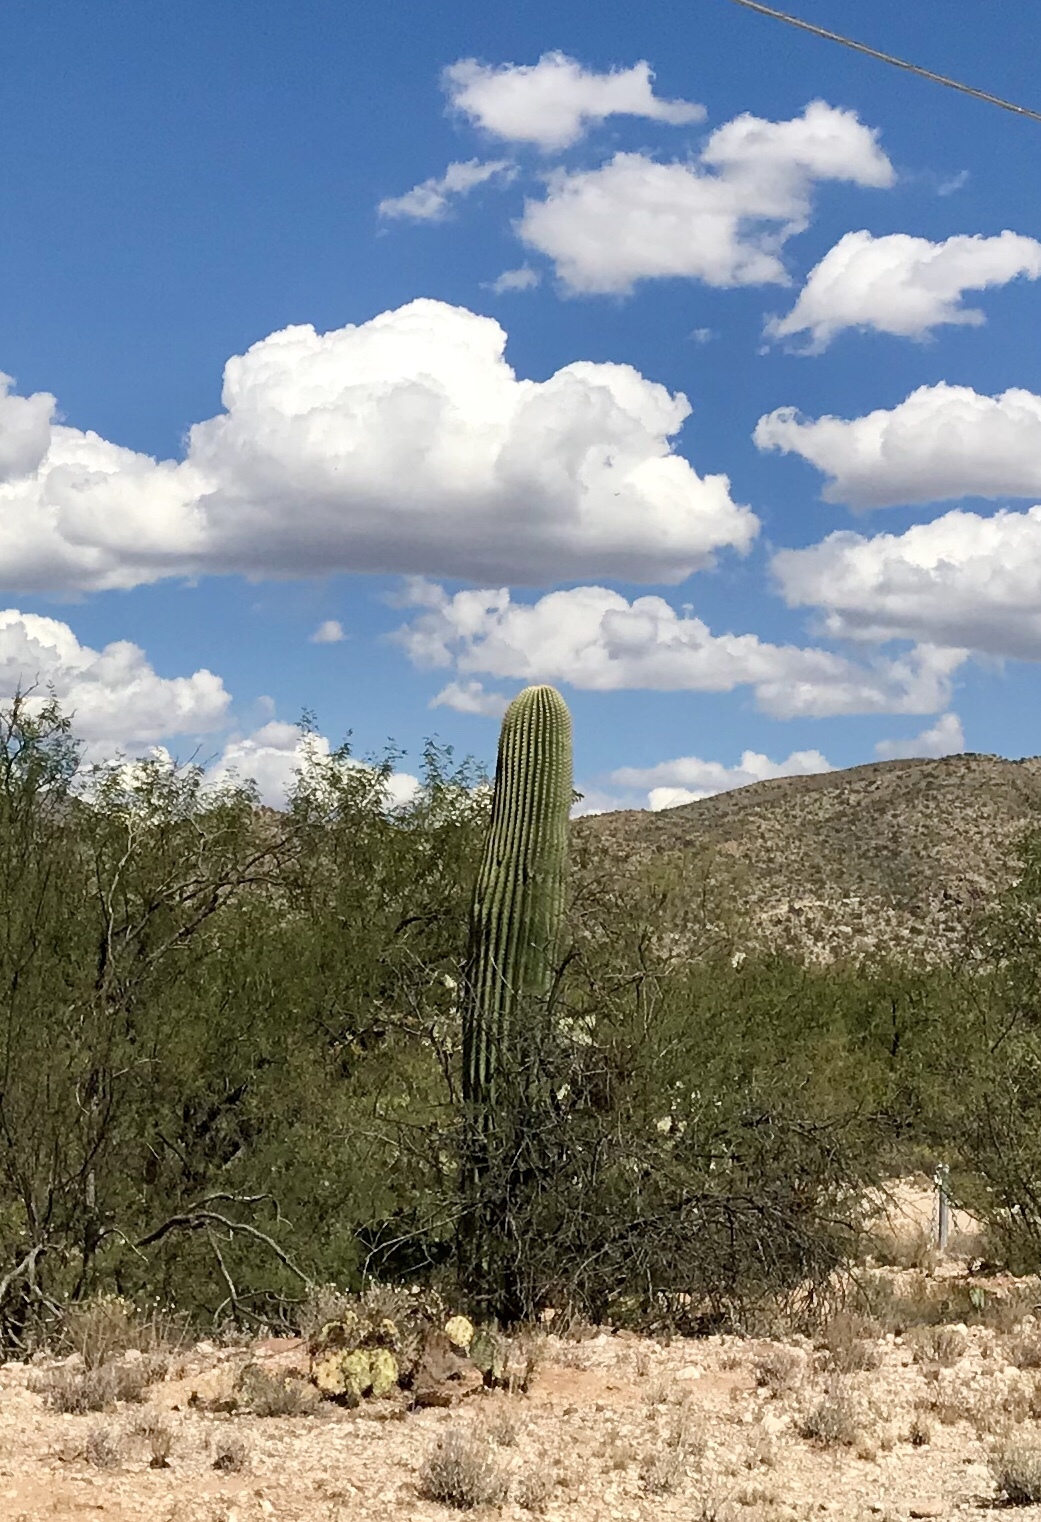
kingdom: Plantae
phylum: Tracheophyta
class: Magnoliopsida
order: Caryophyllales
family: Cactaceae
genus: Carnegiea
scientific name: Carnegiea gigantea
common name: Saguaro
